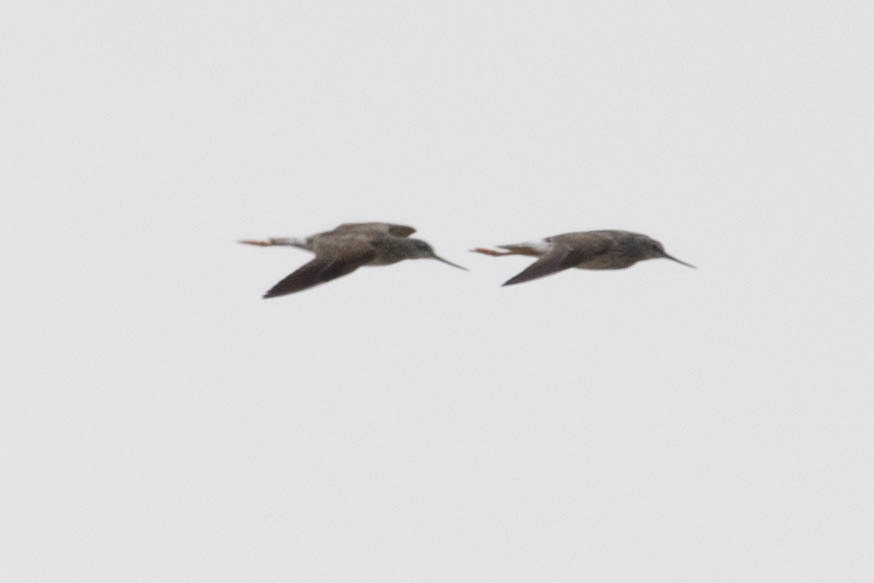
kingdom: Animalia
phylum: Chordata
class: Aves
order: Charadriiformes
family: Scolopacidae
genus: Tringa
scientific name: Tringa melanoleuca
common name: Greater yellowlegs
